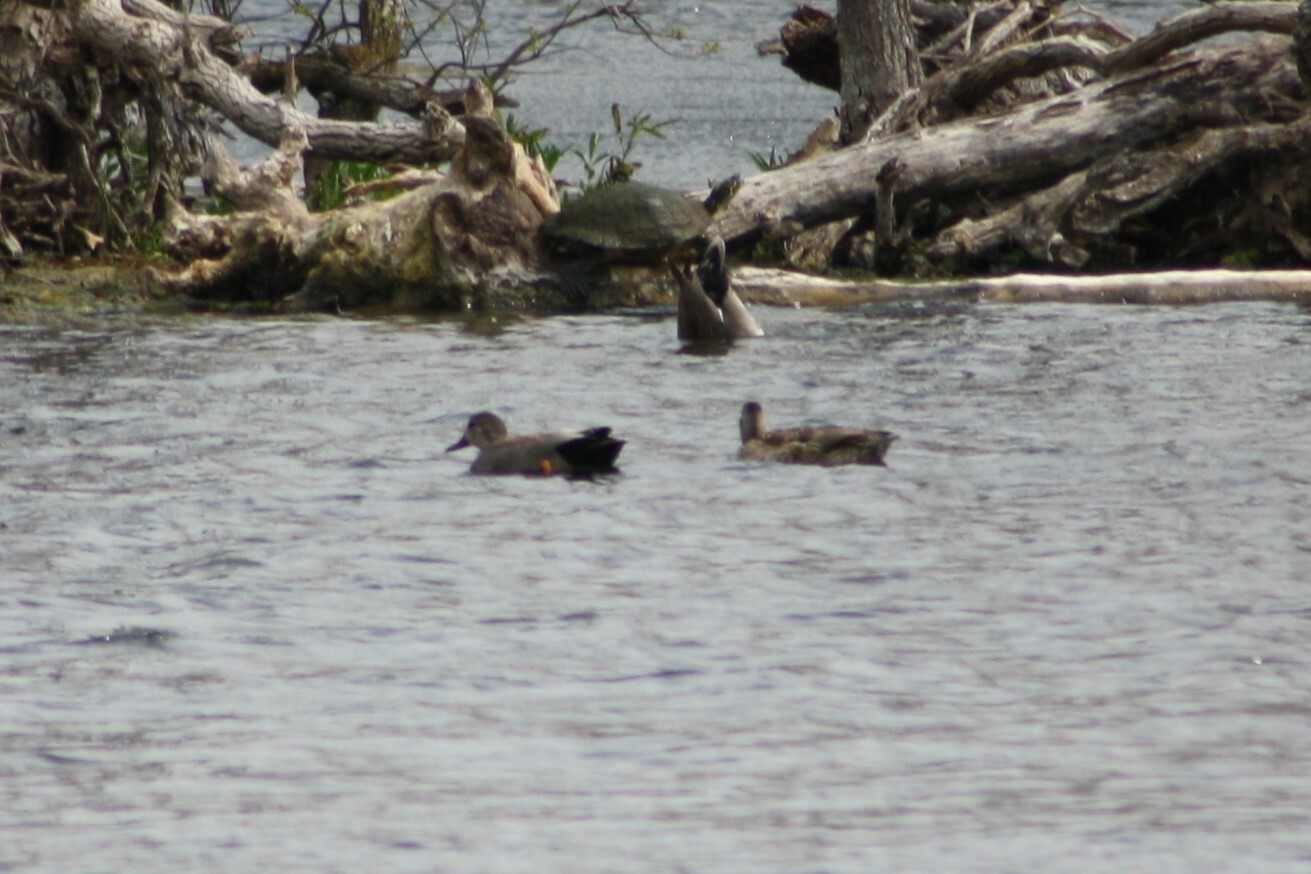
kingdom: Animalia
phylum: Chordata
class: Aves
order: Anseriformes
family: Anatidae
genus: Mareca
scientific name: Mareca strepera
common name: Gadwall
